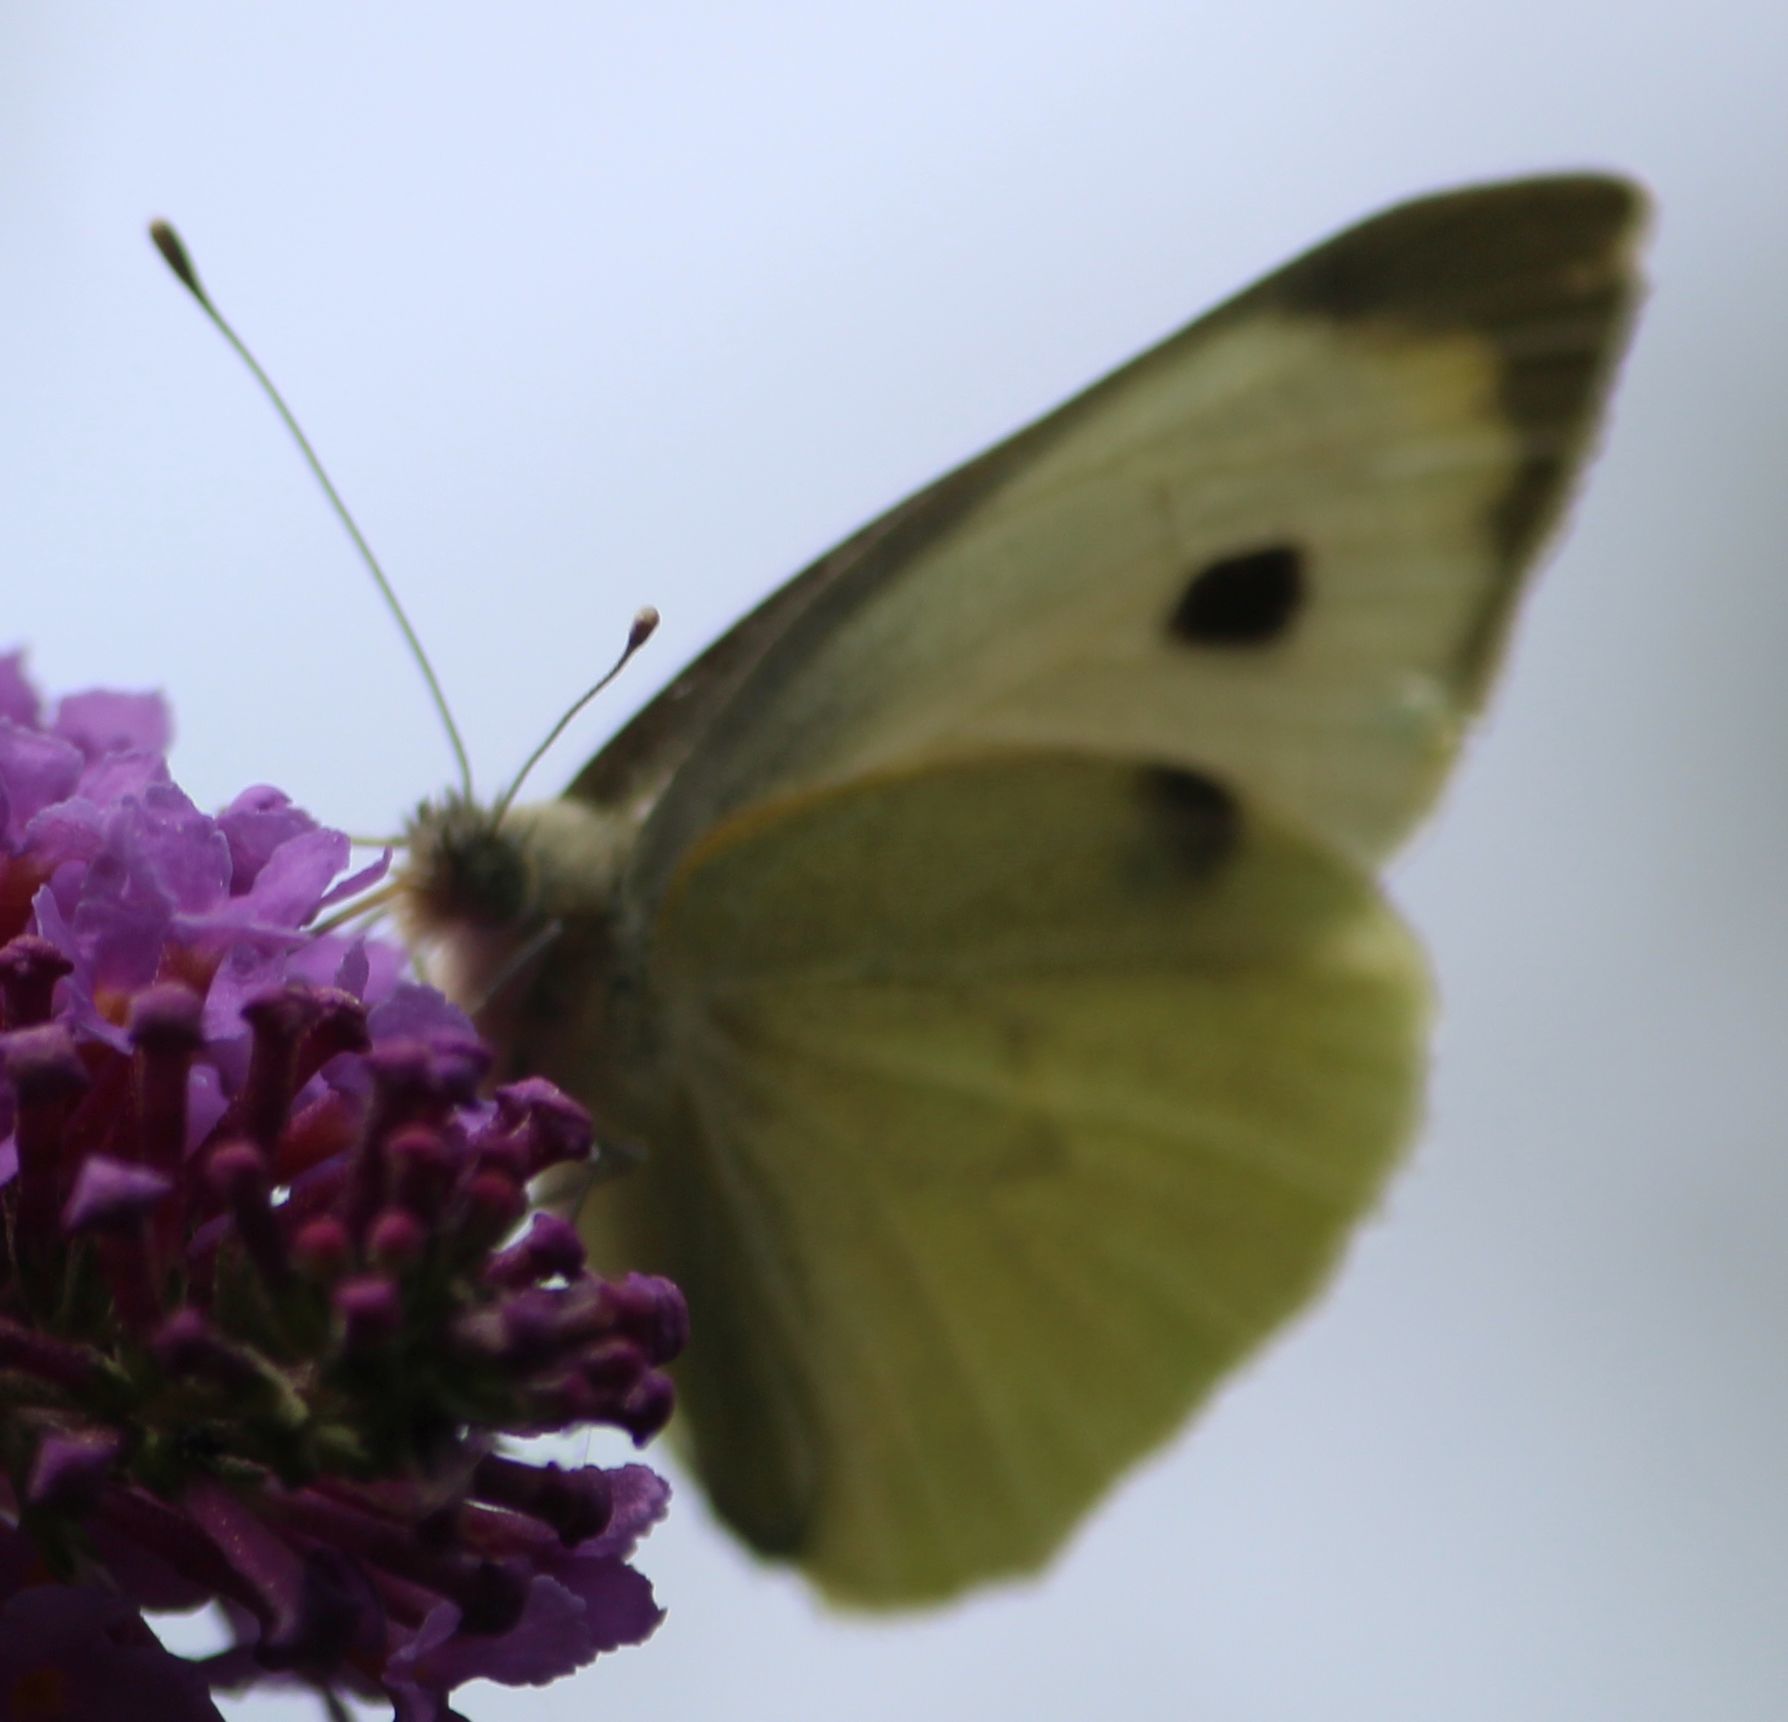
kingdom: Animalia
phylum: Arthropoda
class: Insecta
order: Lepidoptera
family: Pieridae
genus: Pieris
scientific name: Pieris brassicae
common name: Large white
